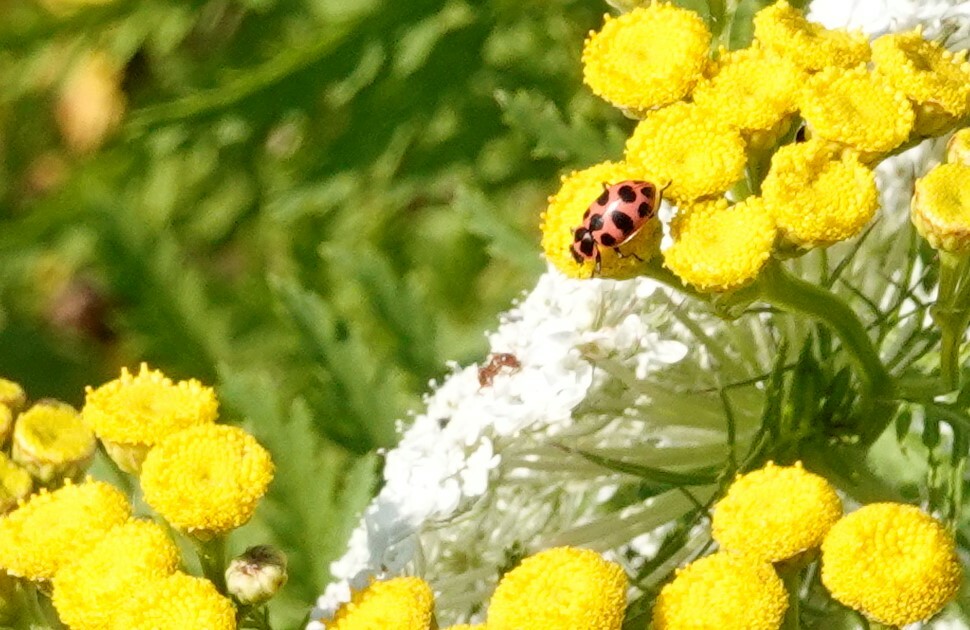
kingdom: Animalia
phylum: Arthropoda
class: Insecta
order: Coleoptera
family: Coccinellidae
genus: Coleomegilla
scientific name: Coleomegilla maculata
